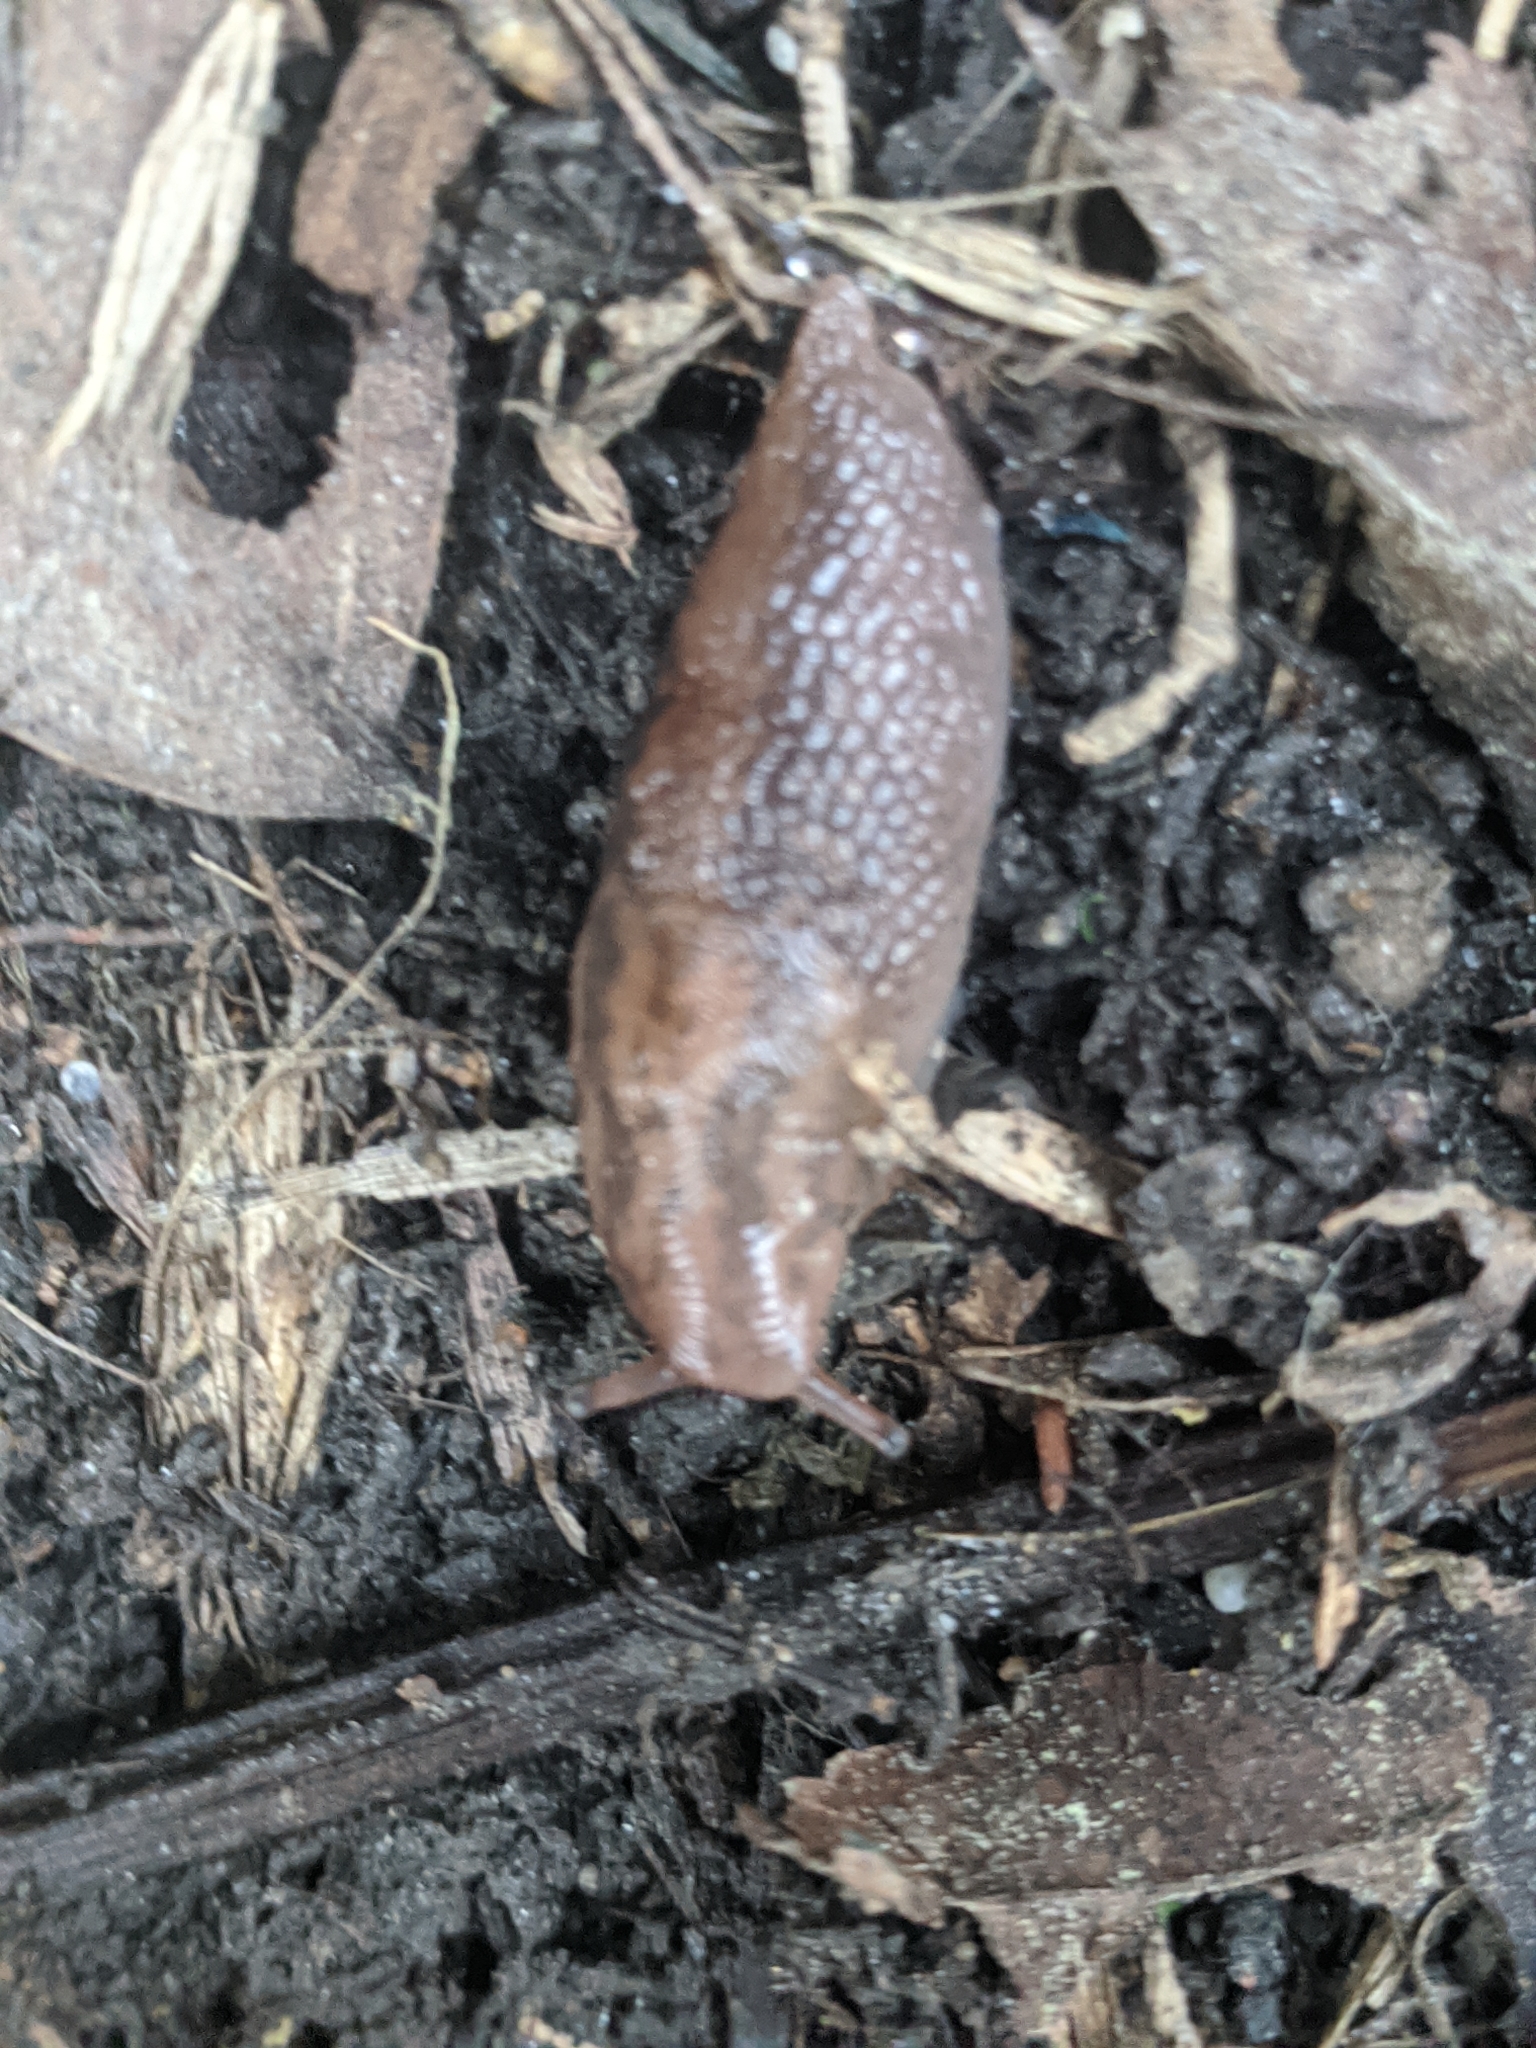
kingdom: Animalia
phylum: Mollusca
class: Gastropoda
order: Stylommatophora
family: Limacidae
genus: Ambigolimax
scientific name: Ambigolimax
